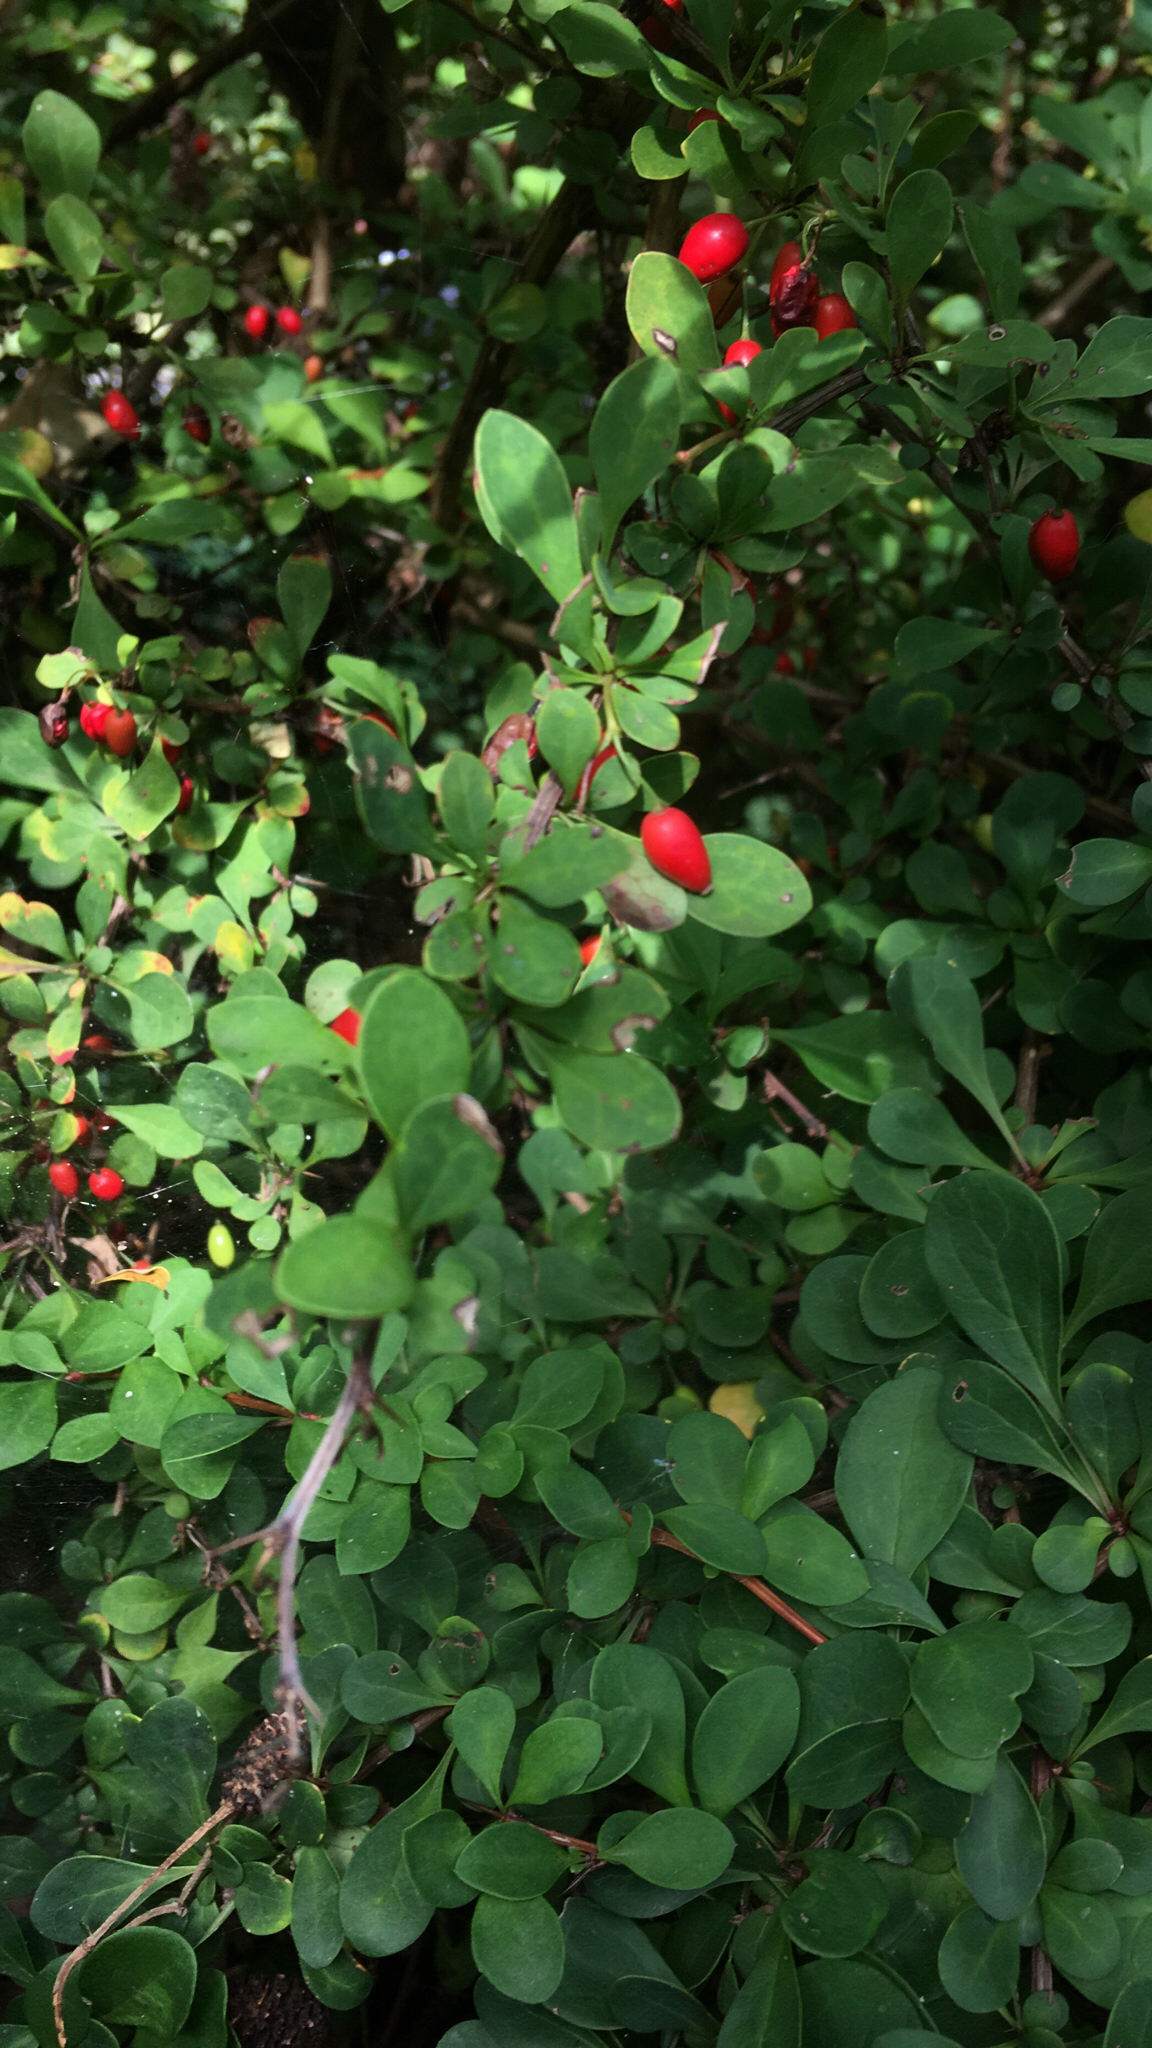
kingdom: Plantae
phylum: Tracheophyta
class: Magnoliopsida
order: Ranunculales
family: Berberidaceae
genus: Berberis
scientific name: Berberis thunbergii
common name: Japanese barberry
